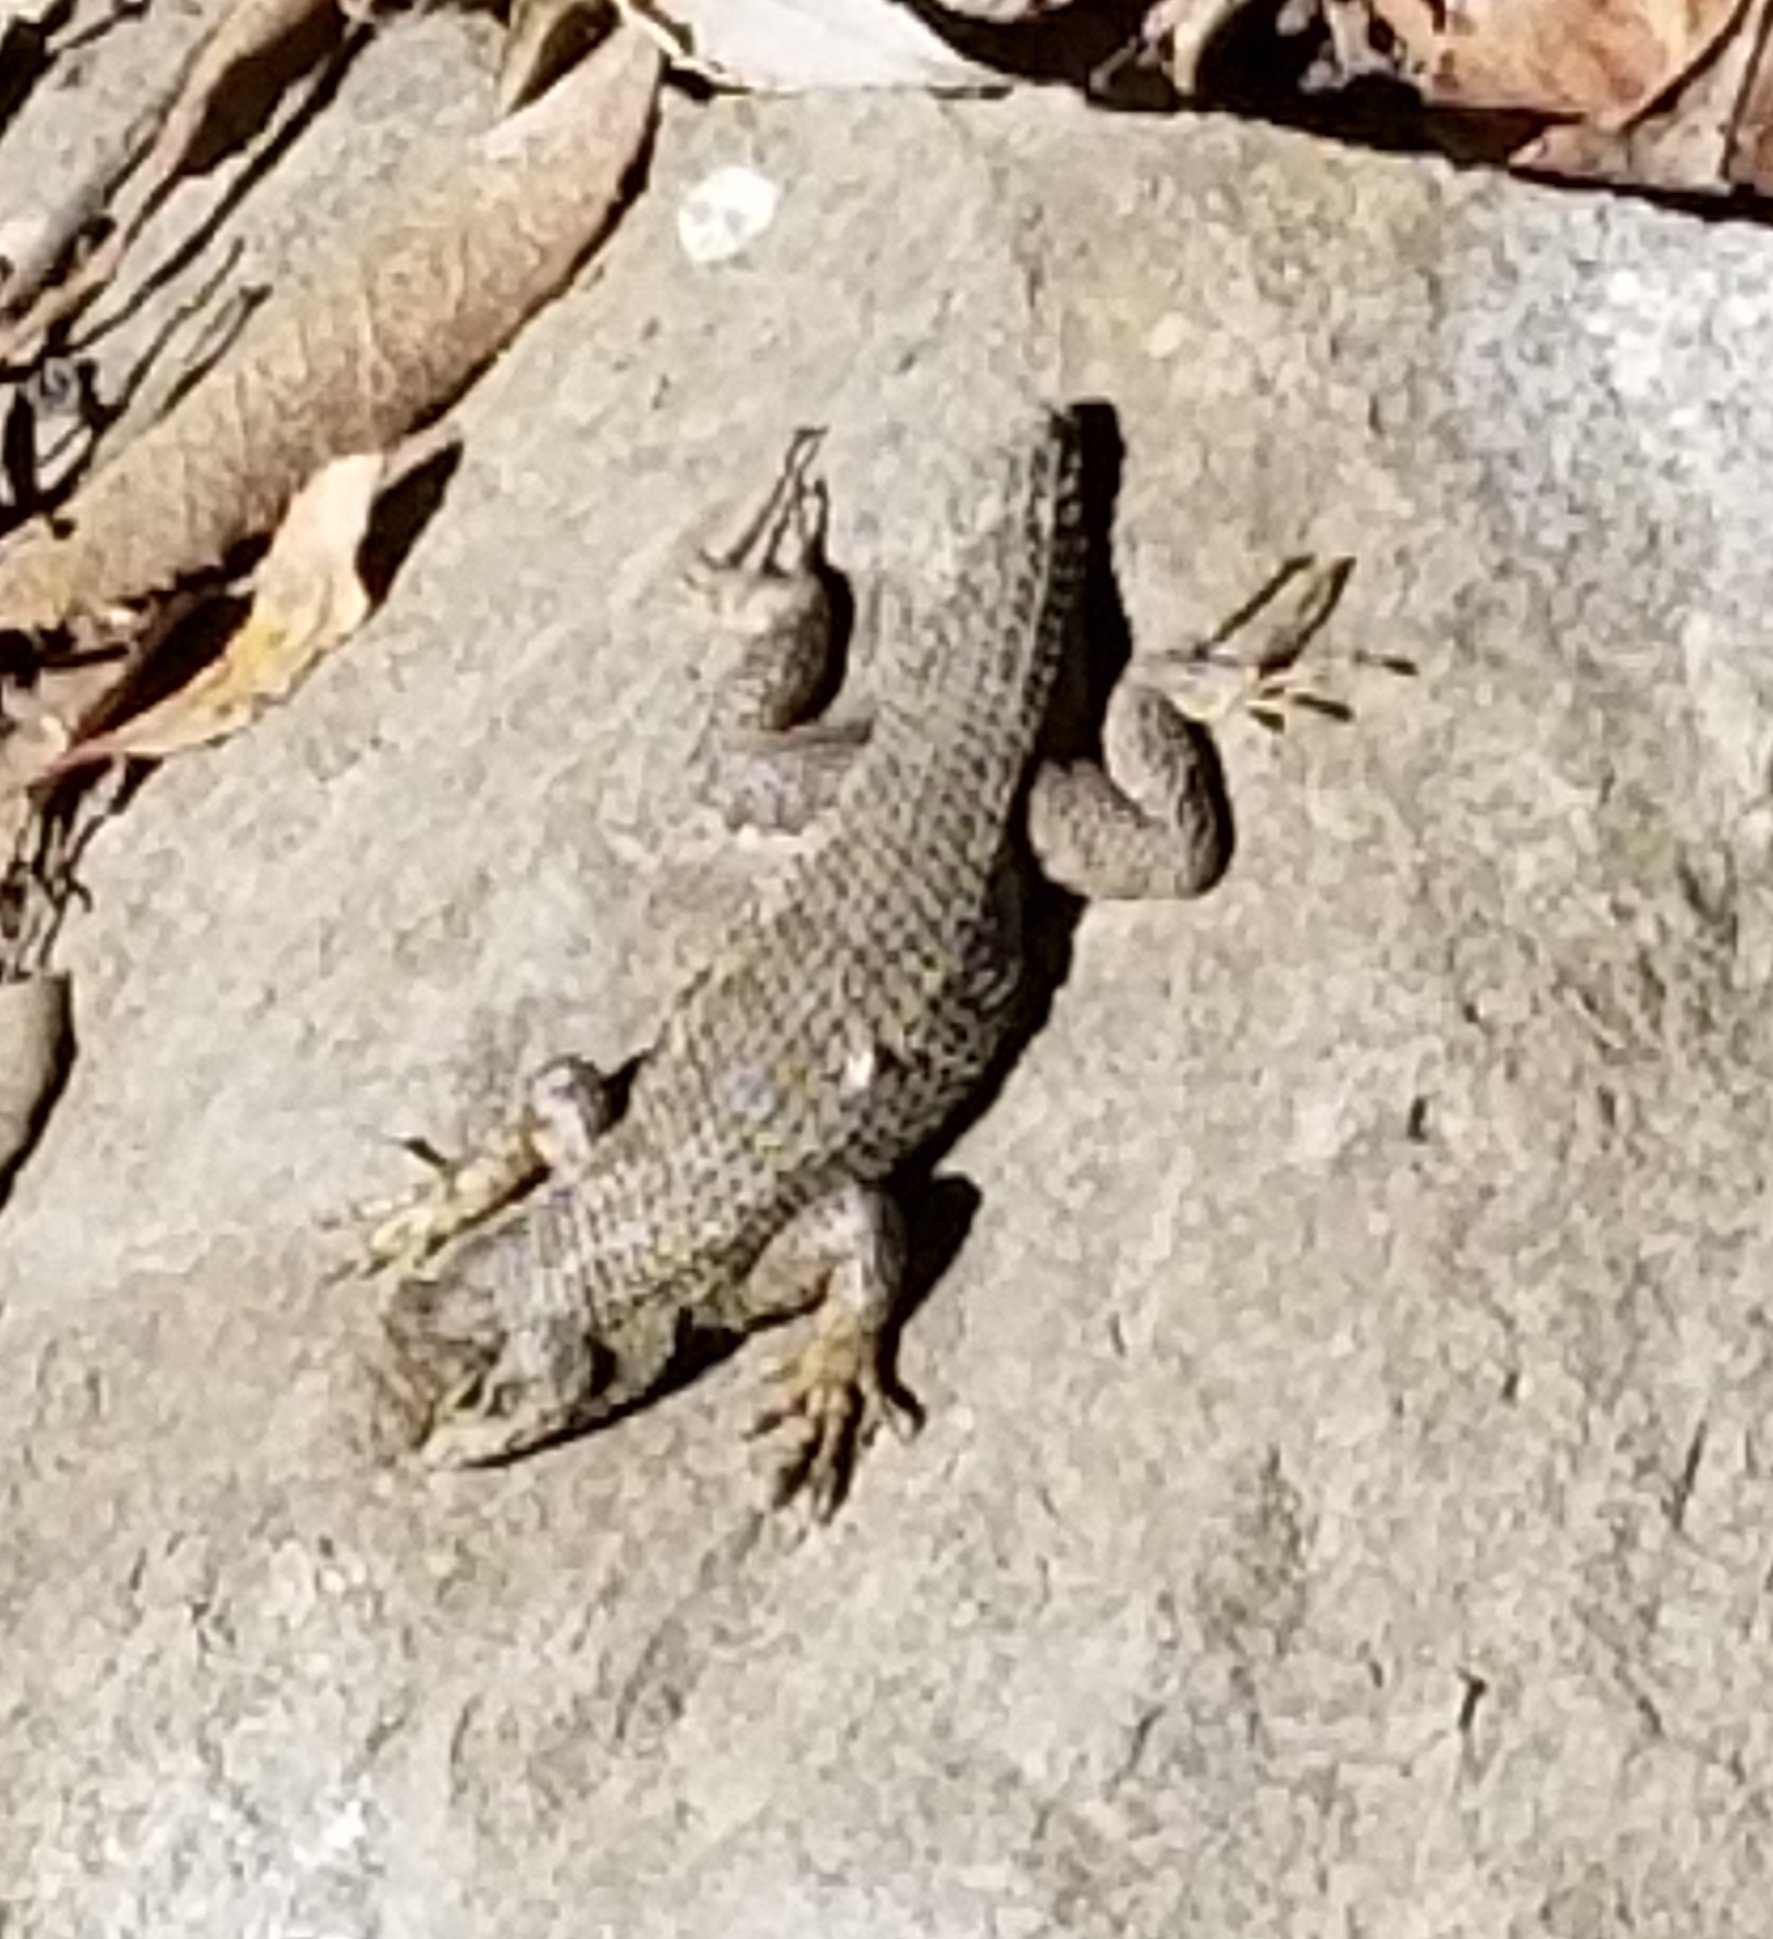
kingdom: Animalia
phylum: Chordata
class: Squamata
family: Phrynosomatidae
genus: Sceloporus
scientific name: Sceloporus occidentalis
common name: Western fence lizard
